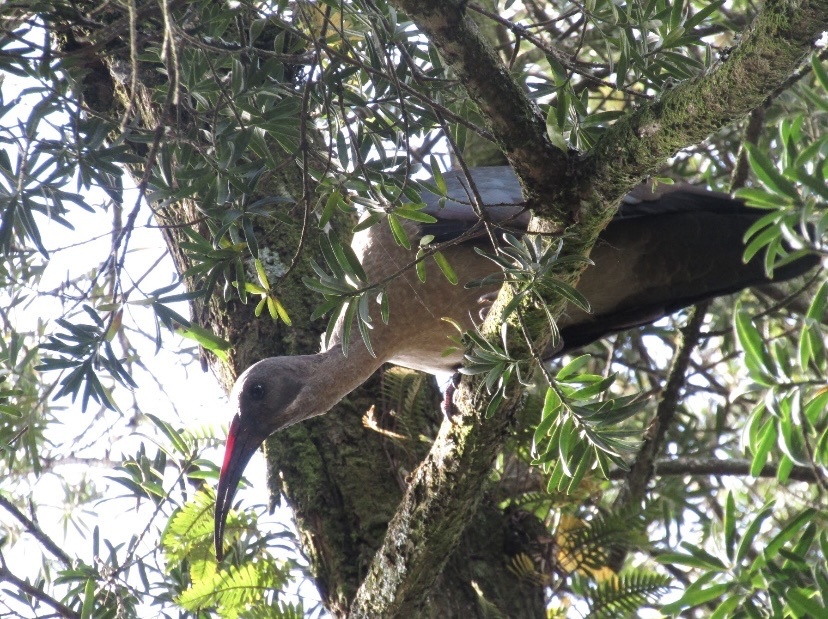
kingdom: Animalia
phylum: Chordata
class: Aves
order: Pelecaniformes
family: Threskiornithidae
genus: Bostrychia
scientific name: Bostrychia hagedash
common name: Hadada ibis
